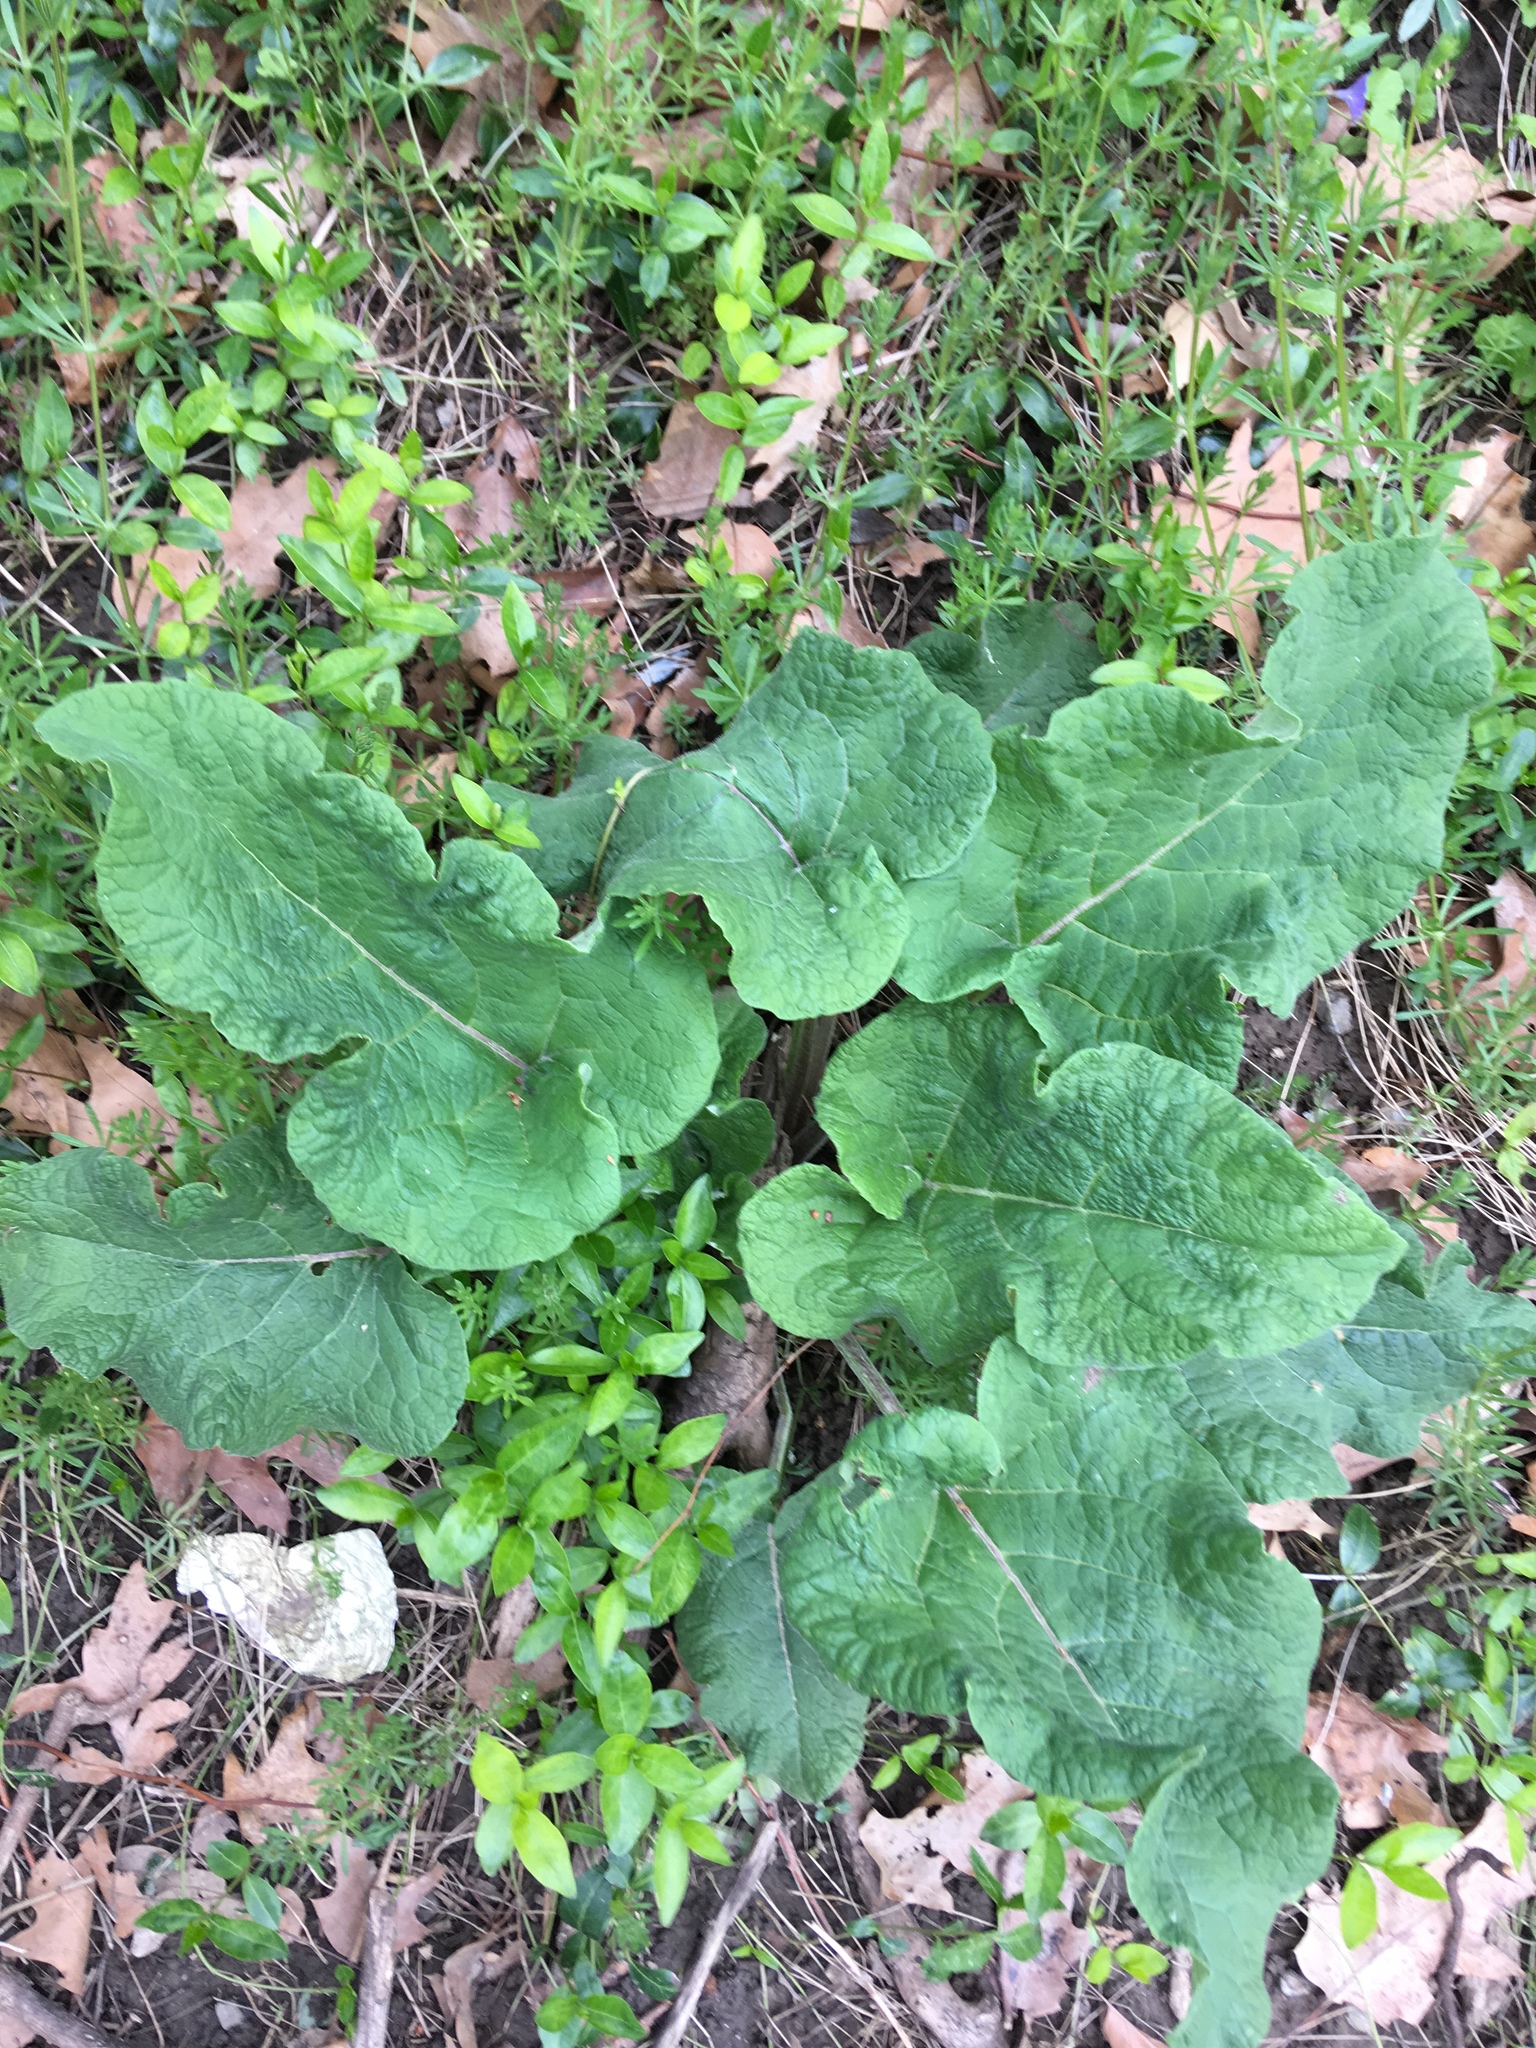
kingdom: Plantae
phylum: Tracheophyta
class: Magnoliopsida
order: Asterales
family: Asteraceae
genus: Arctium
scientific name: Arctium
